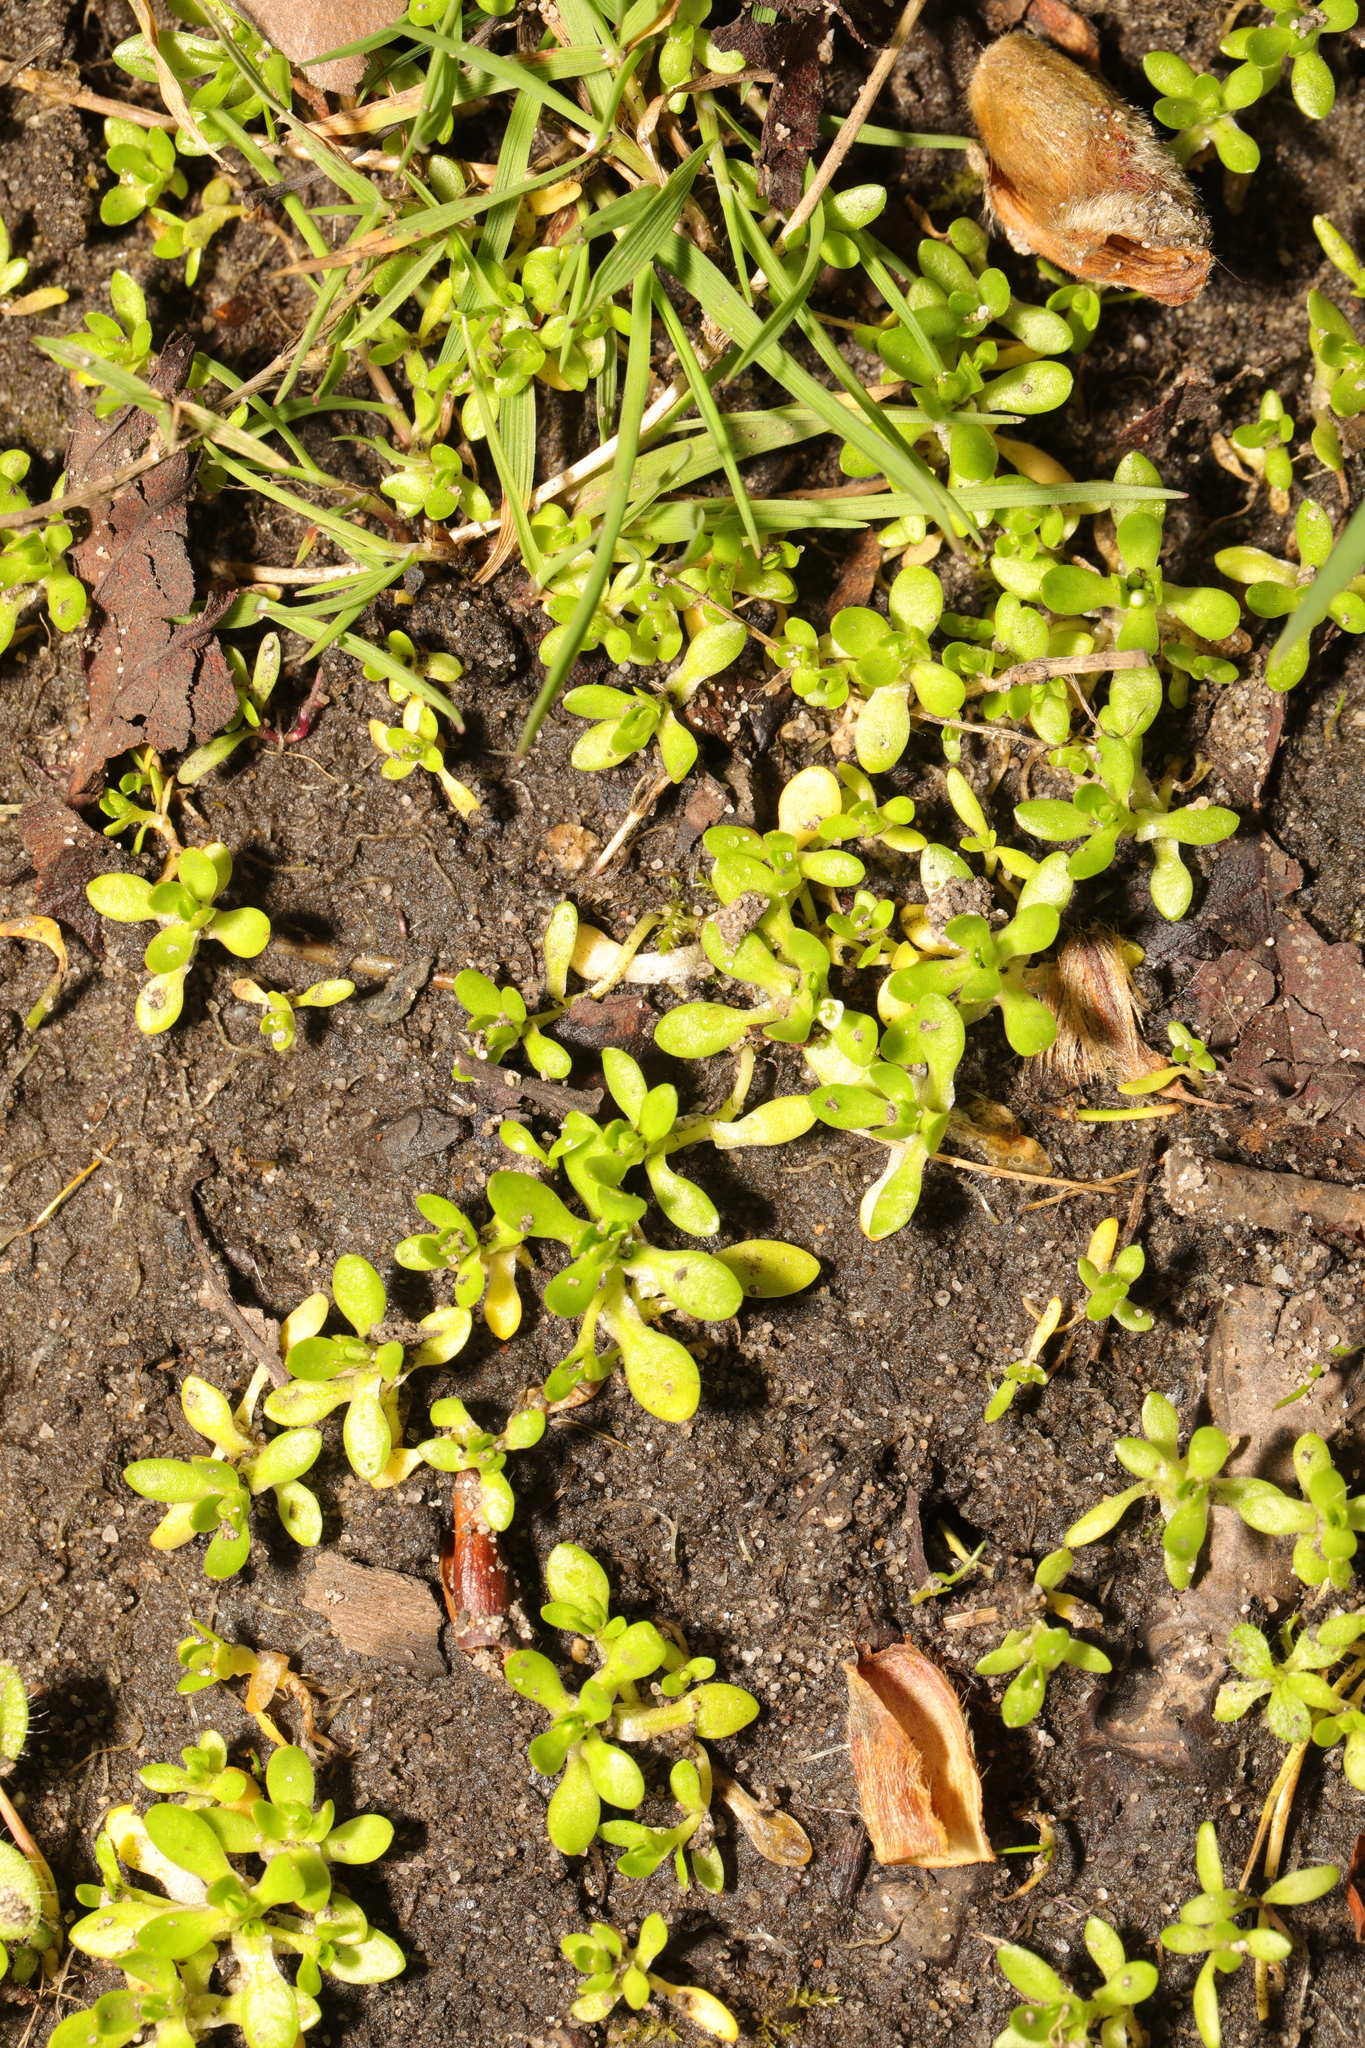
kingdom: Plantae
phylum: Tracheophyta
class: Magnoliopsida
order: Caryophyllales
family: Montiaceae
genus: Montia
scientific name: Montia fontana
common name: Blinks
